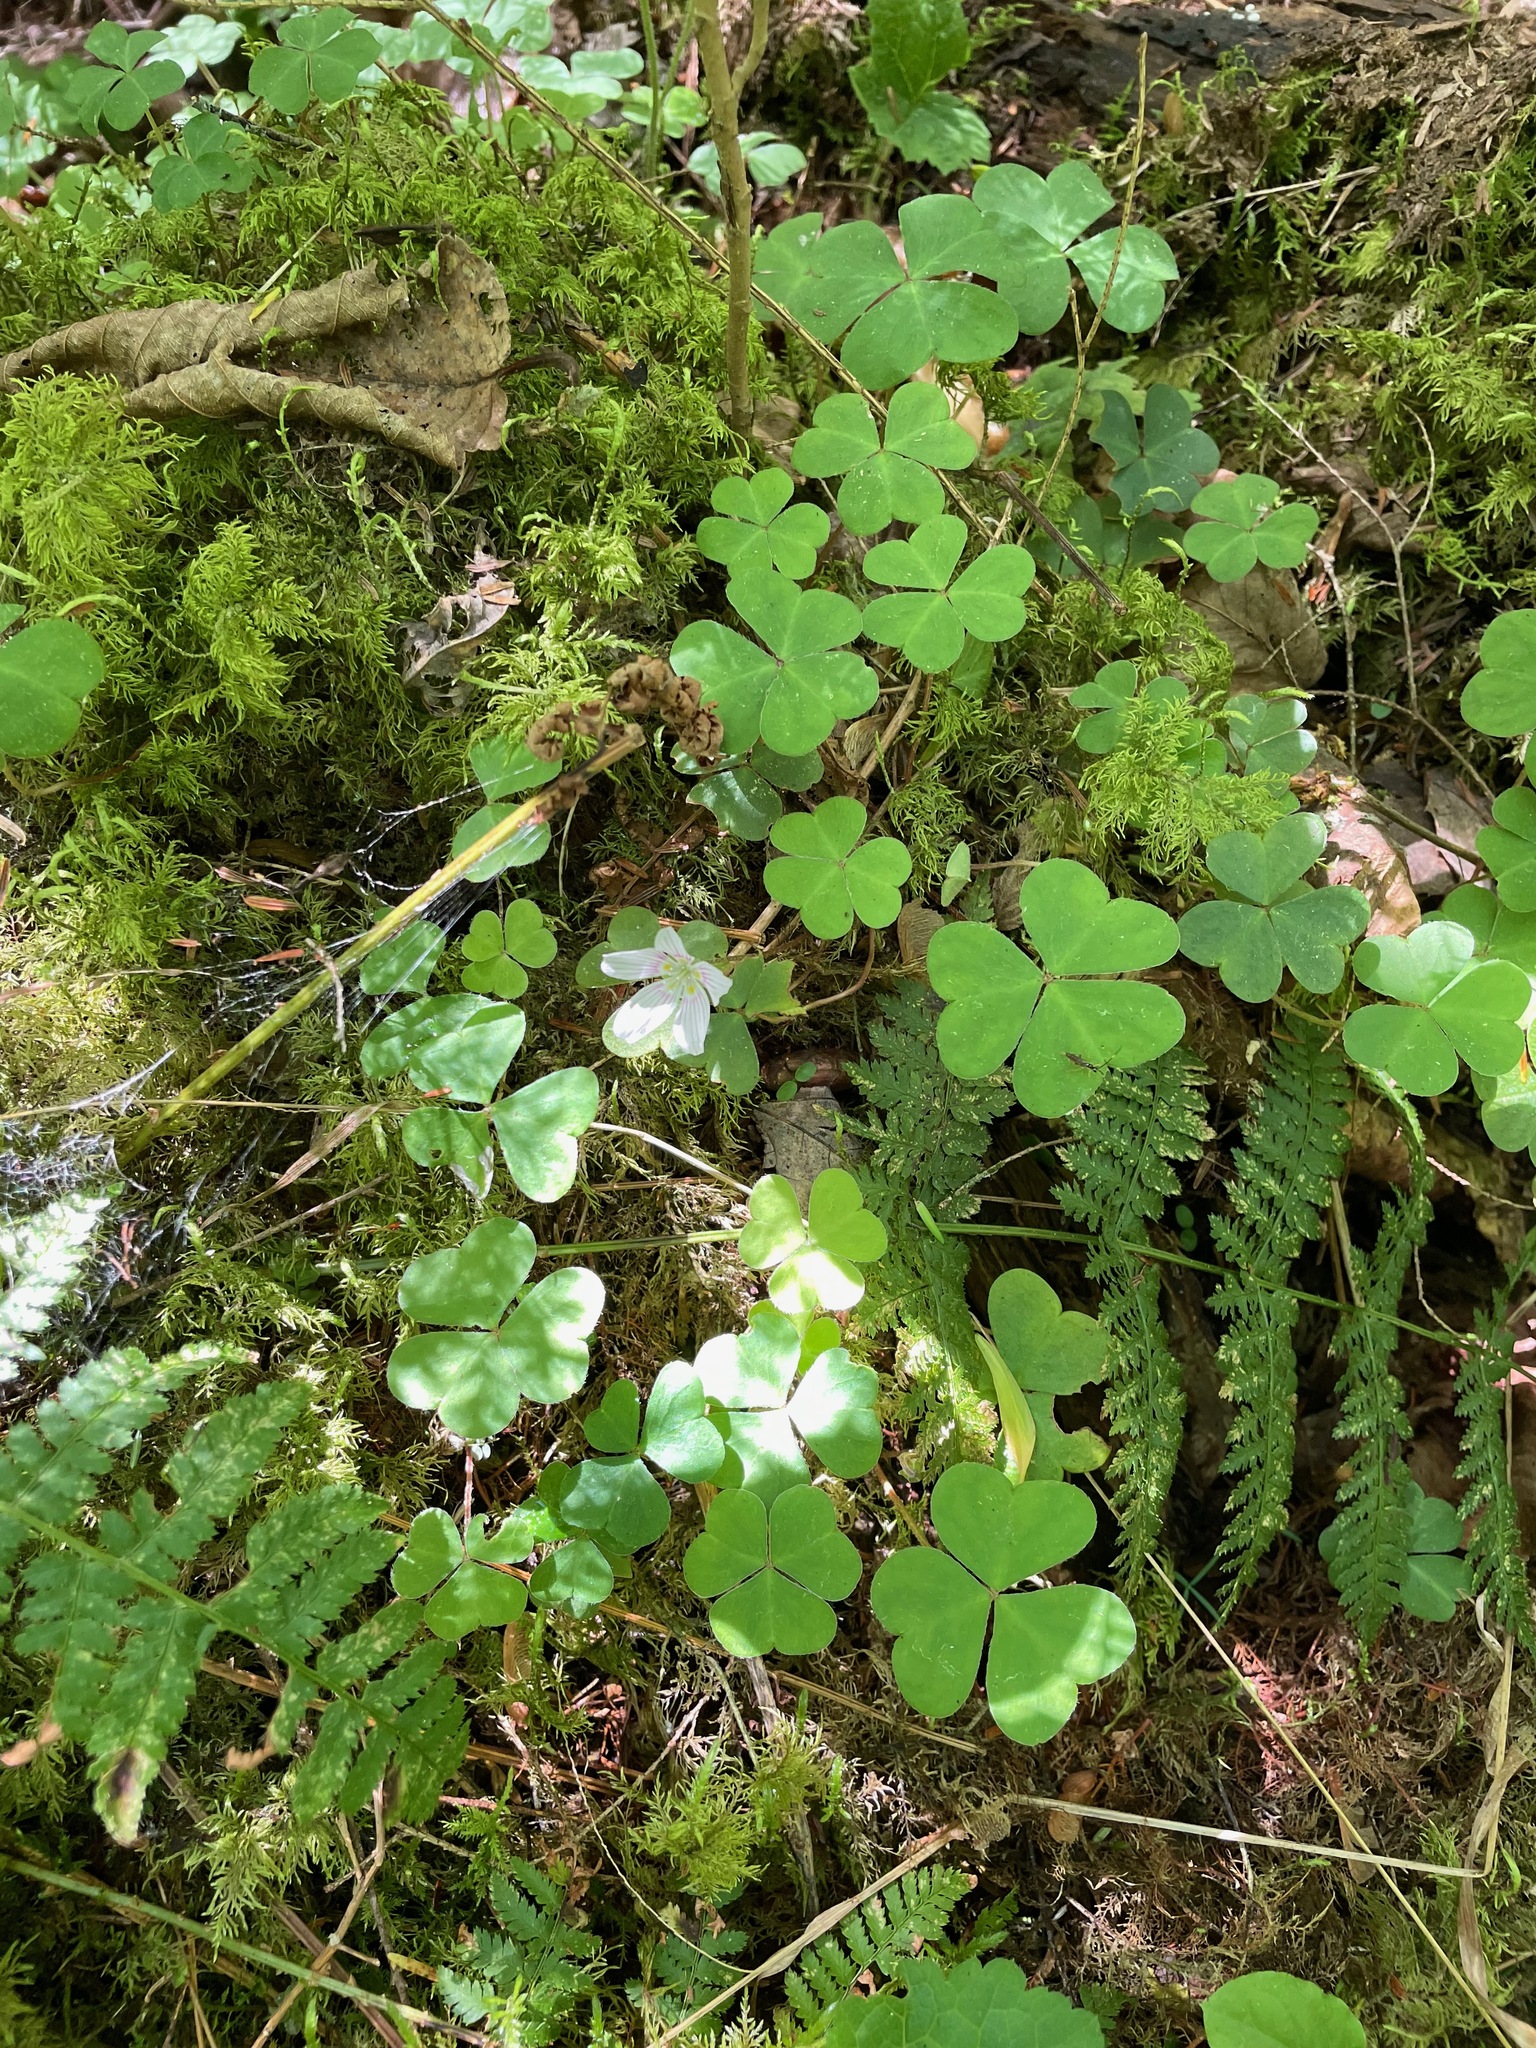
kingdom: Plantae
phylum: Tracheophyta
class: Magnoliopsida
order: Oxalidales
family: Oxalidaceae
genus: Oxalis
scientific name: Oxalis montana
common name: American wood-sorrel
